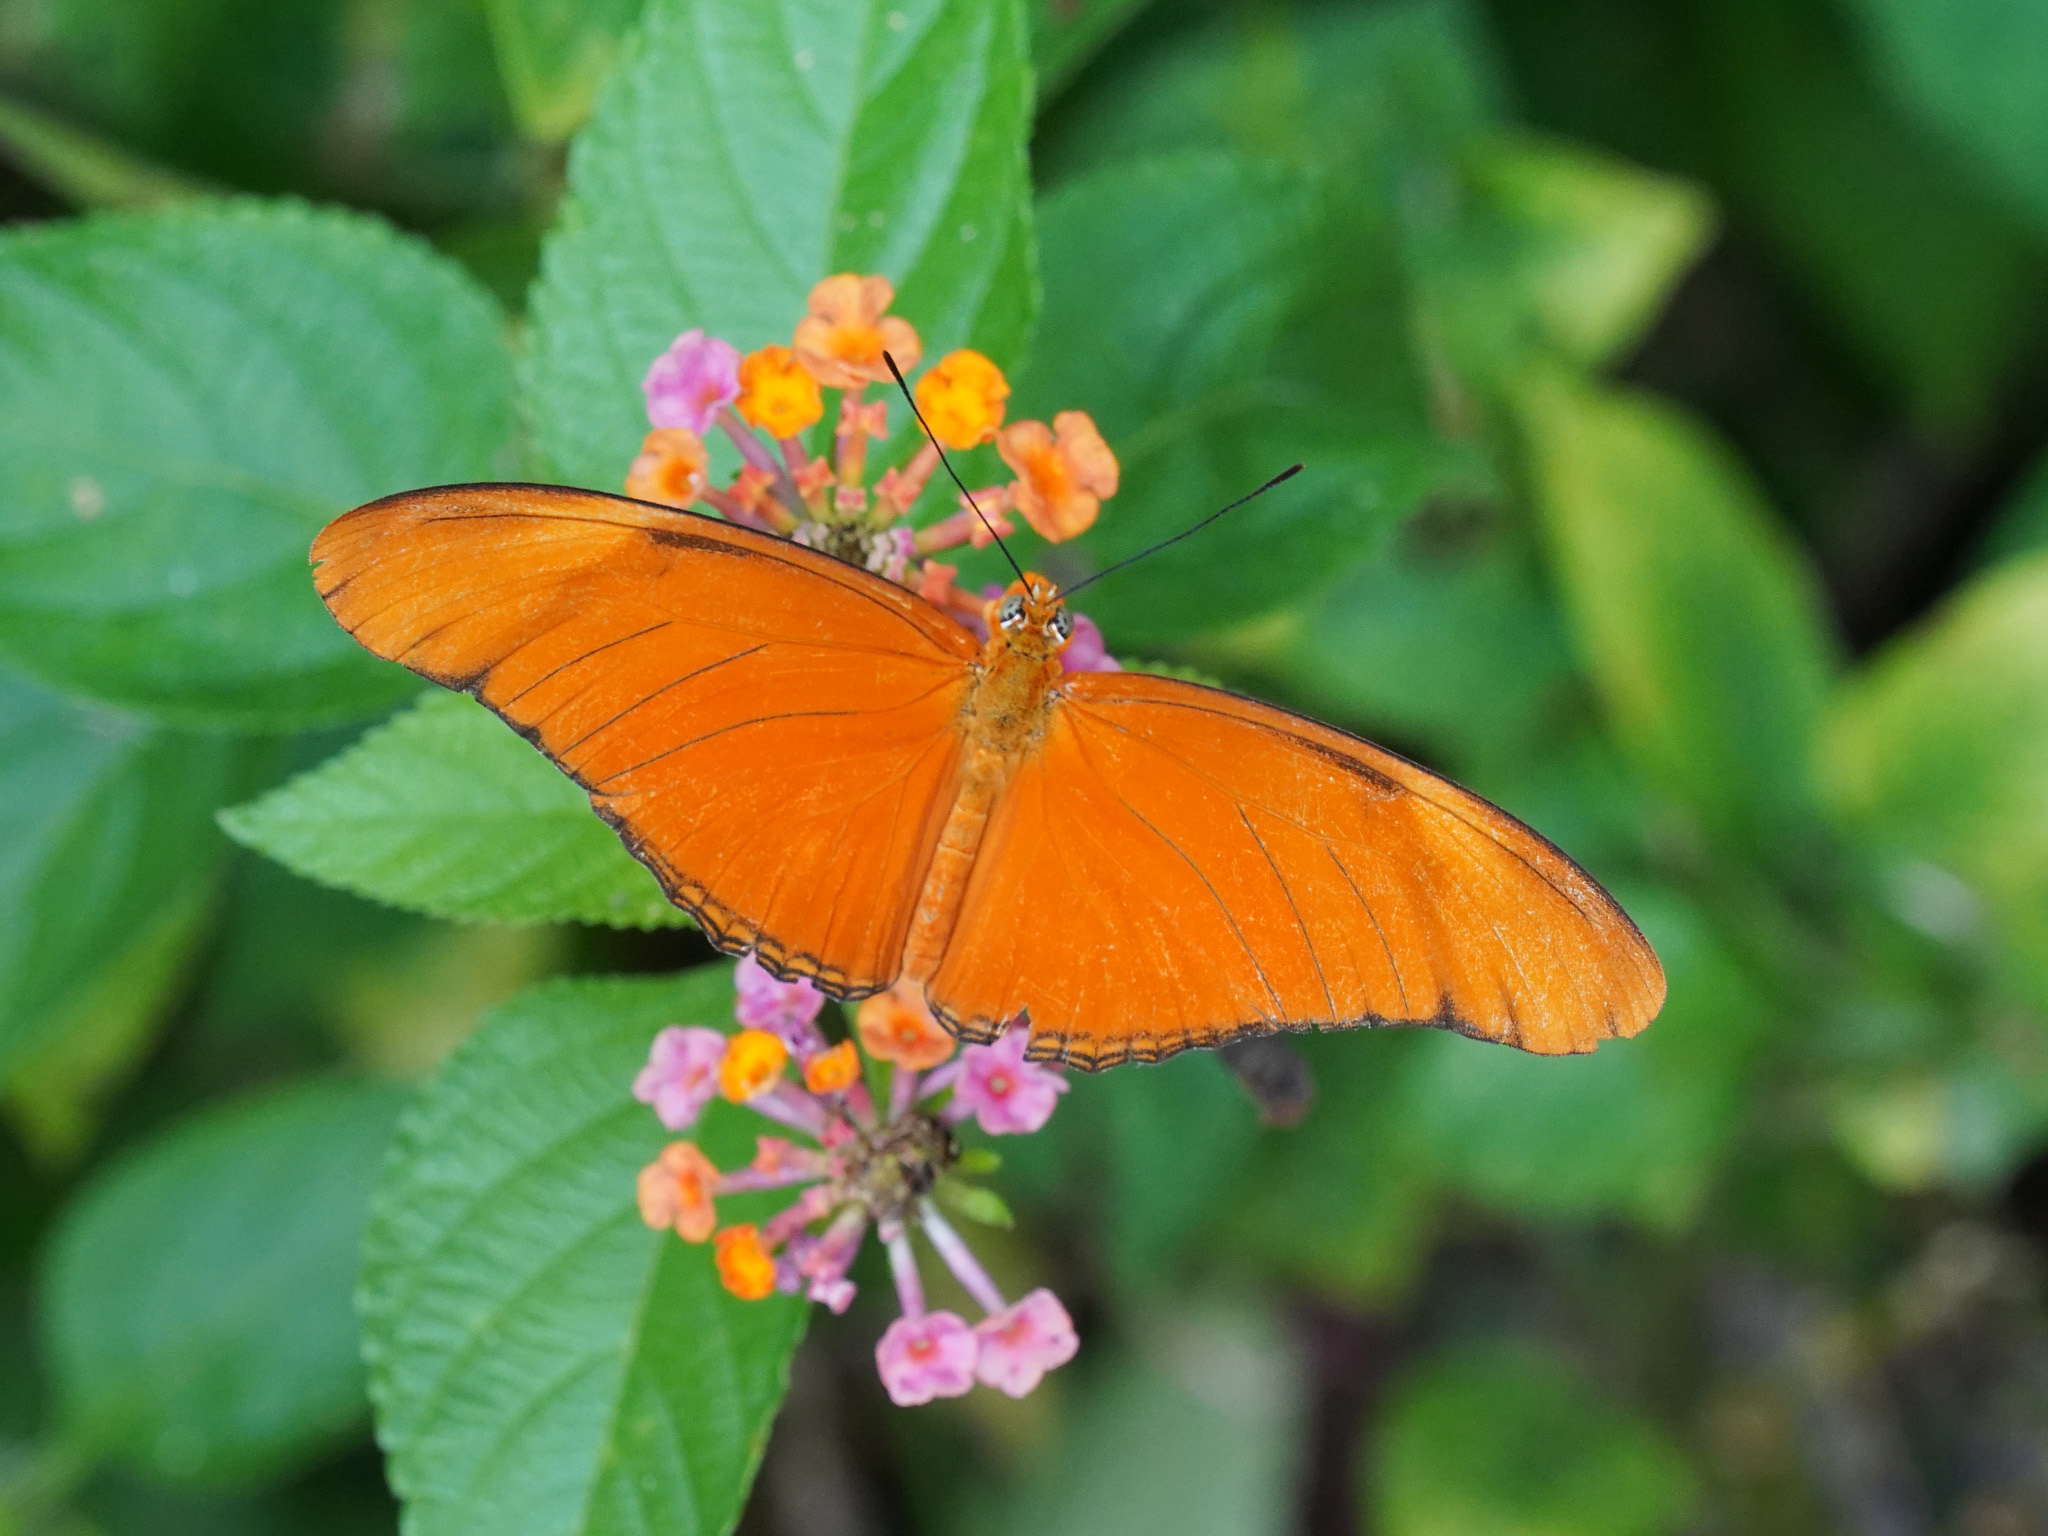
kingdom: Animalia
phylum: Arthropoda
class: Insecta
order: Lepidoptera
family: Nymphalidae
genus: Dryas
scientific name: Dryas iulia
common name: Flambeau
